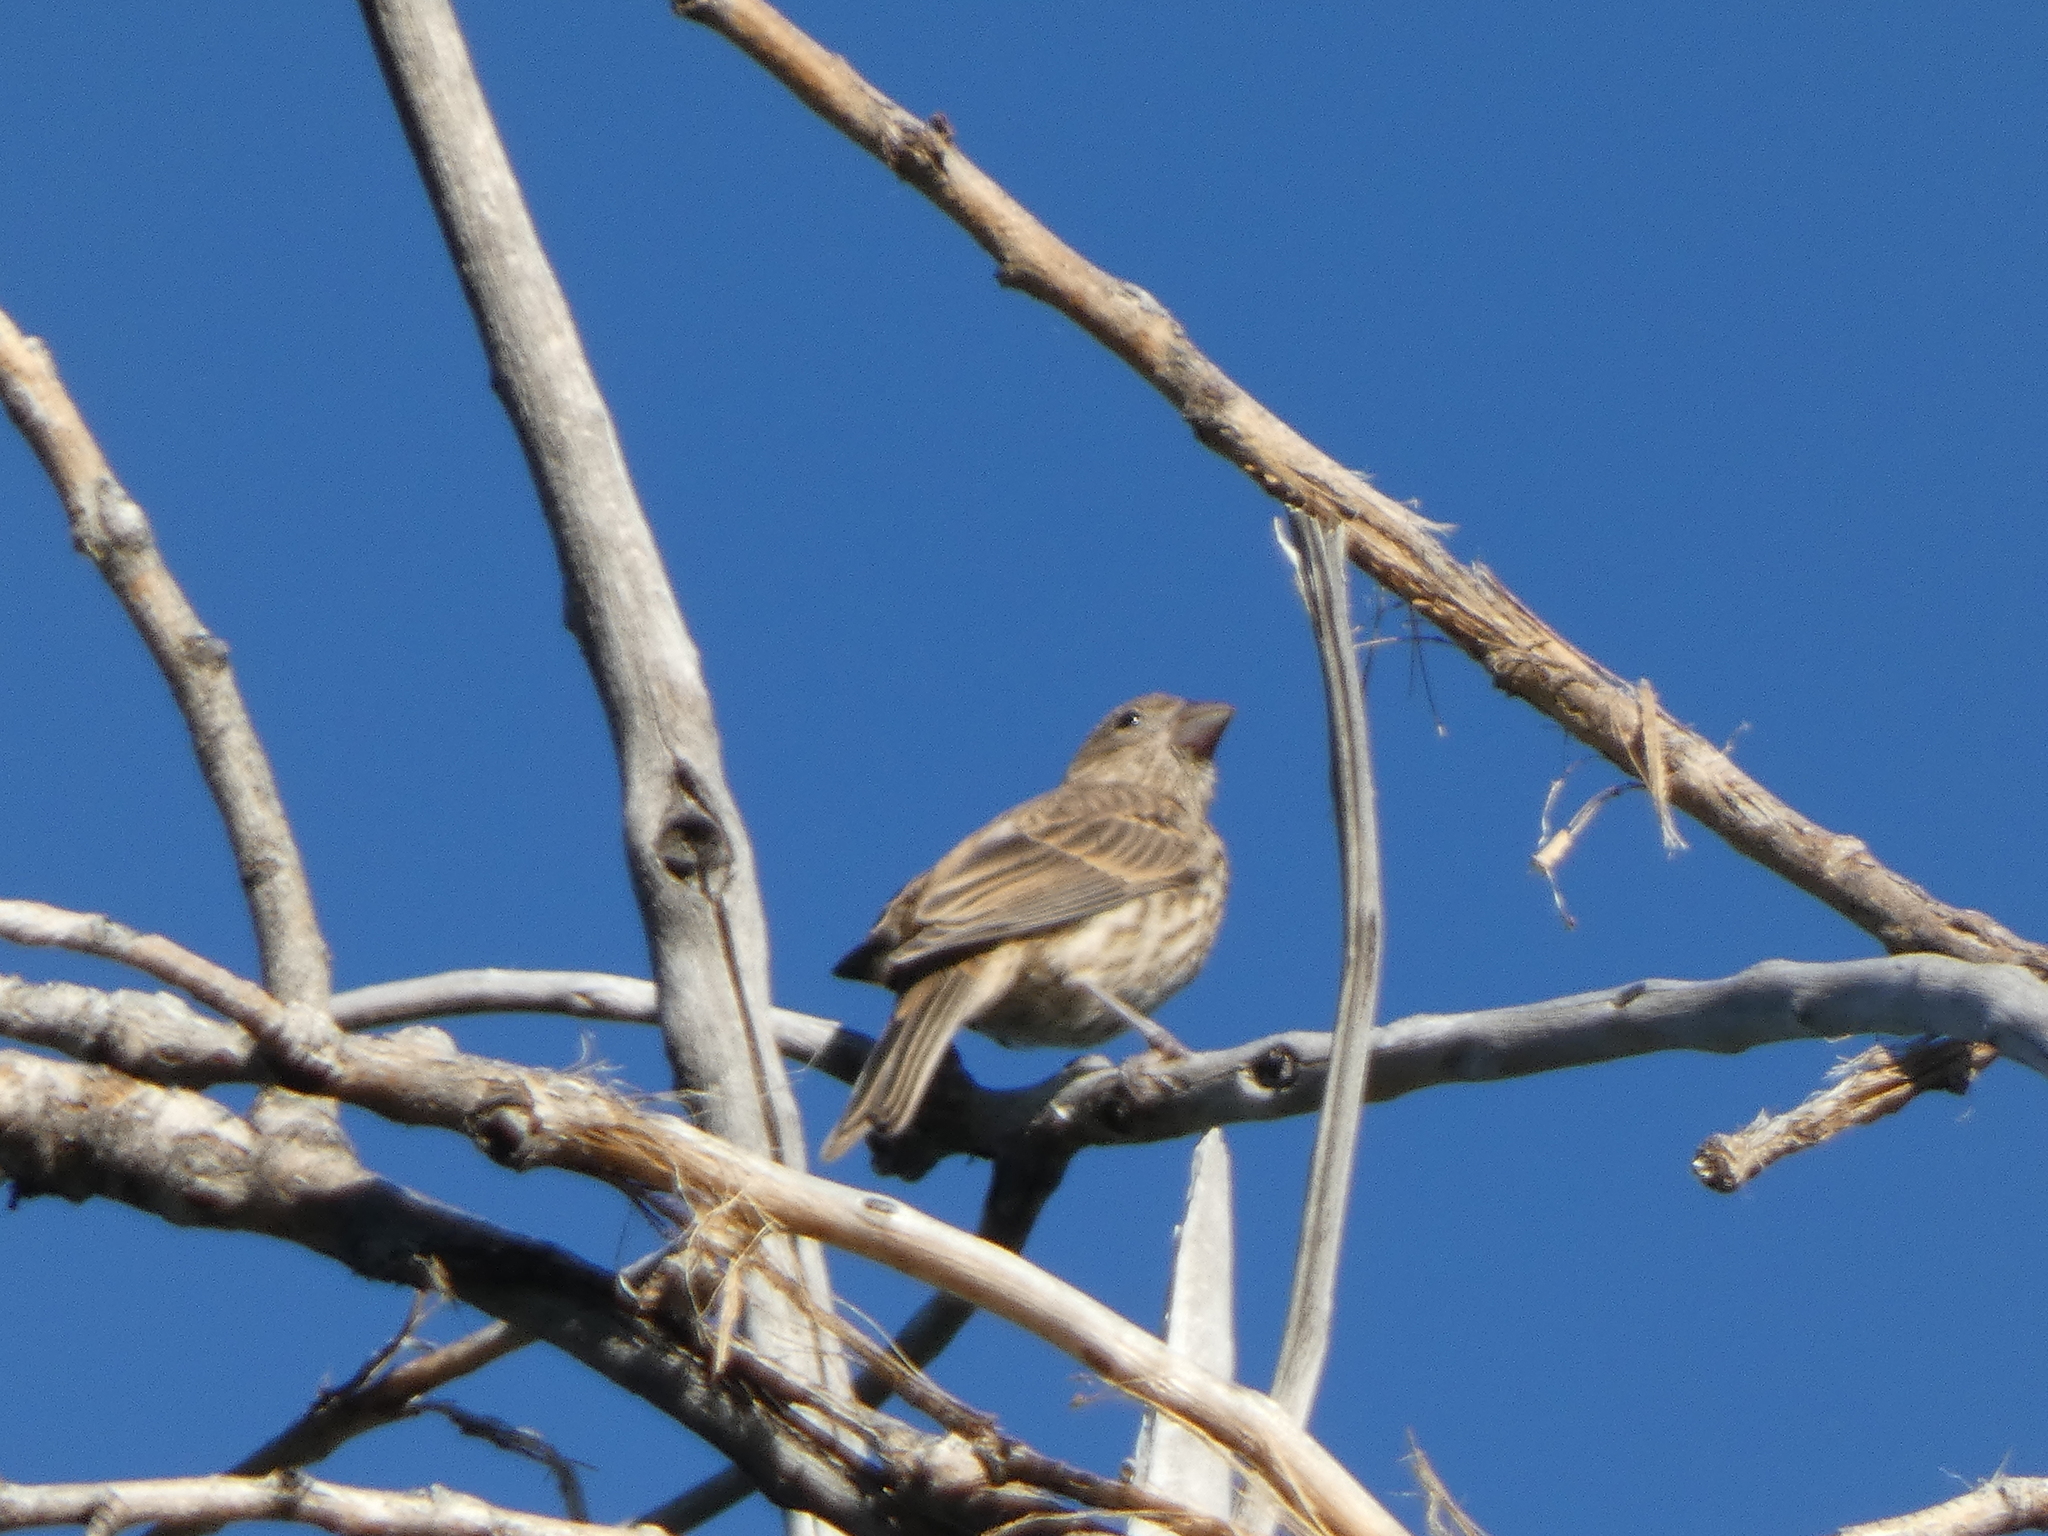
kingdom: Animalia
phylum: Chordata
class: Aves
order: Passeriformes
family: Fringillidae
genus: Haemorhous
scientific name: Haemorhous mexicanus
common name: House finch
